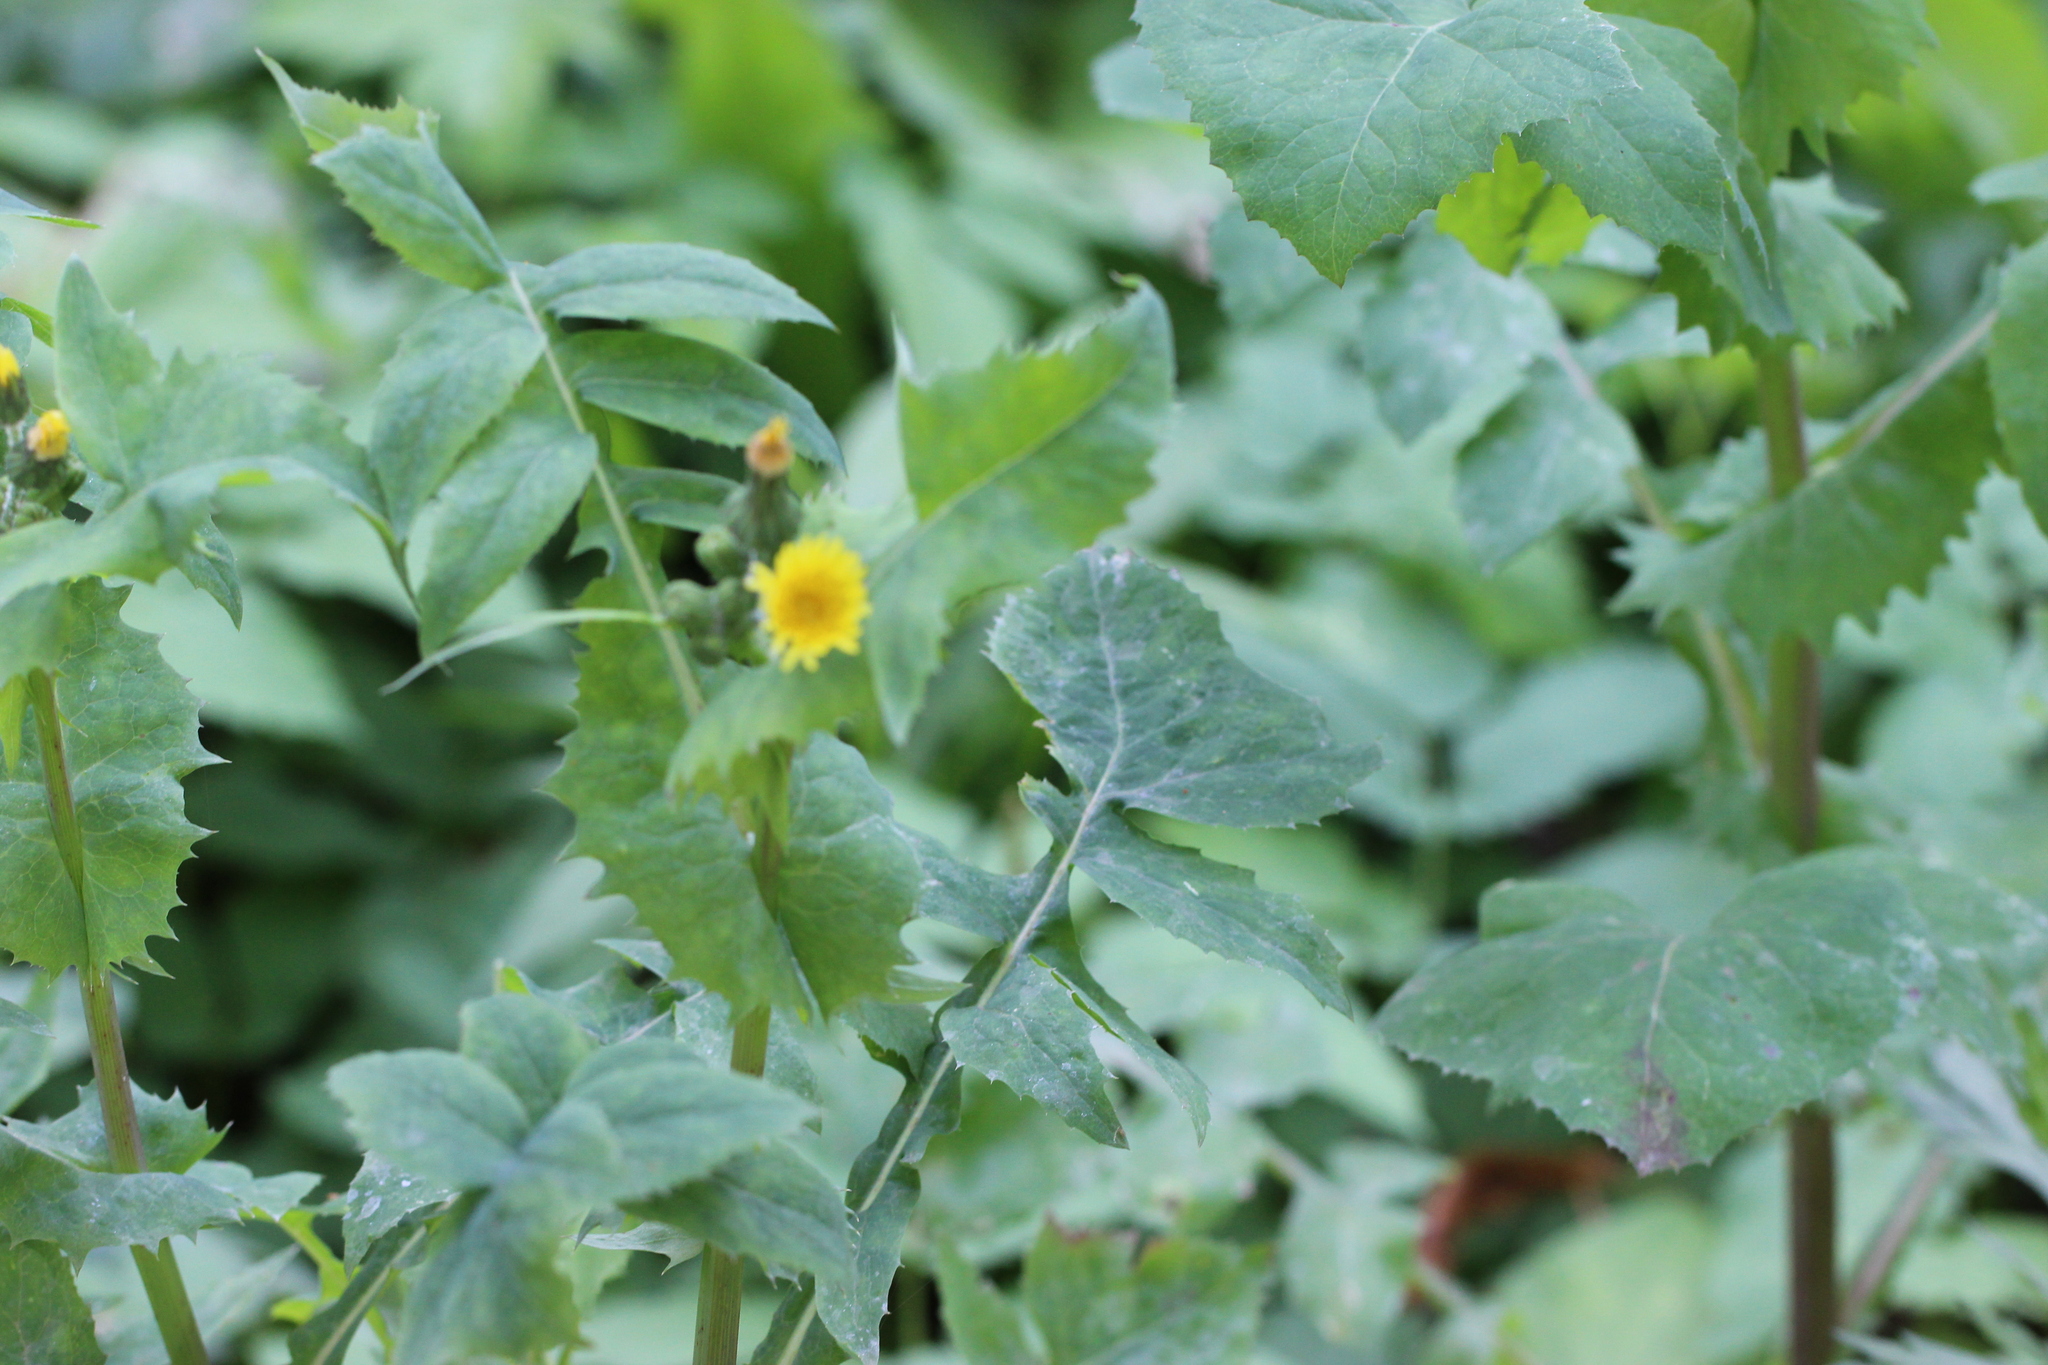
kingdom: Plantae
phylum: Tracheophyta
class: Magnoliopsida
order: Asterales
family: Asteraceae
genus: Sonchus
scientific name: Sonchus oleraceus
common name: Common sowthistle
